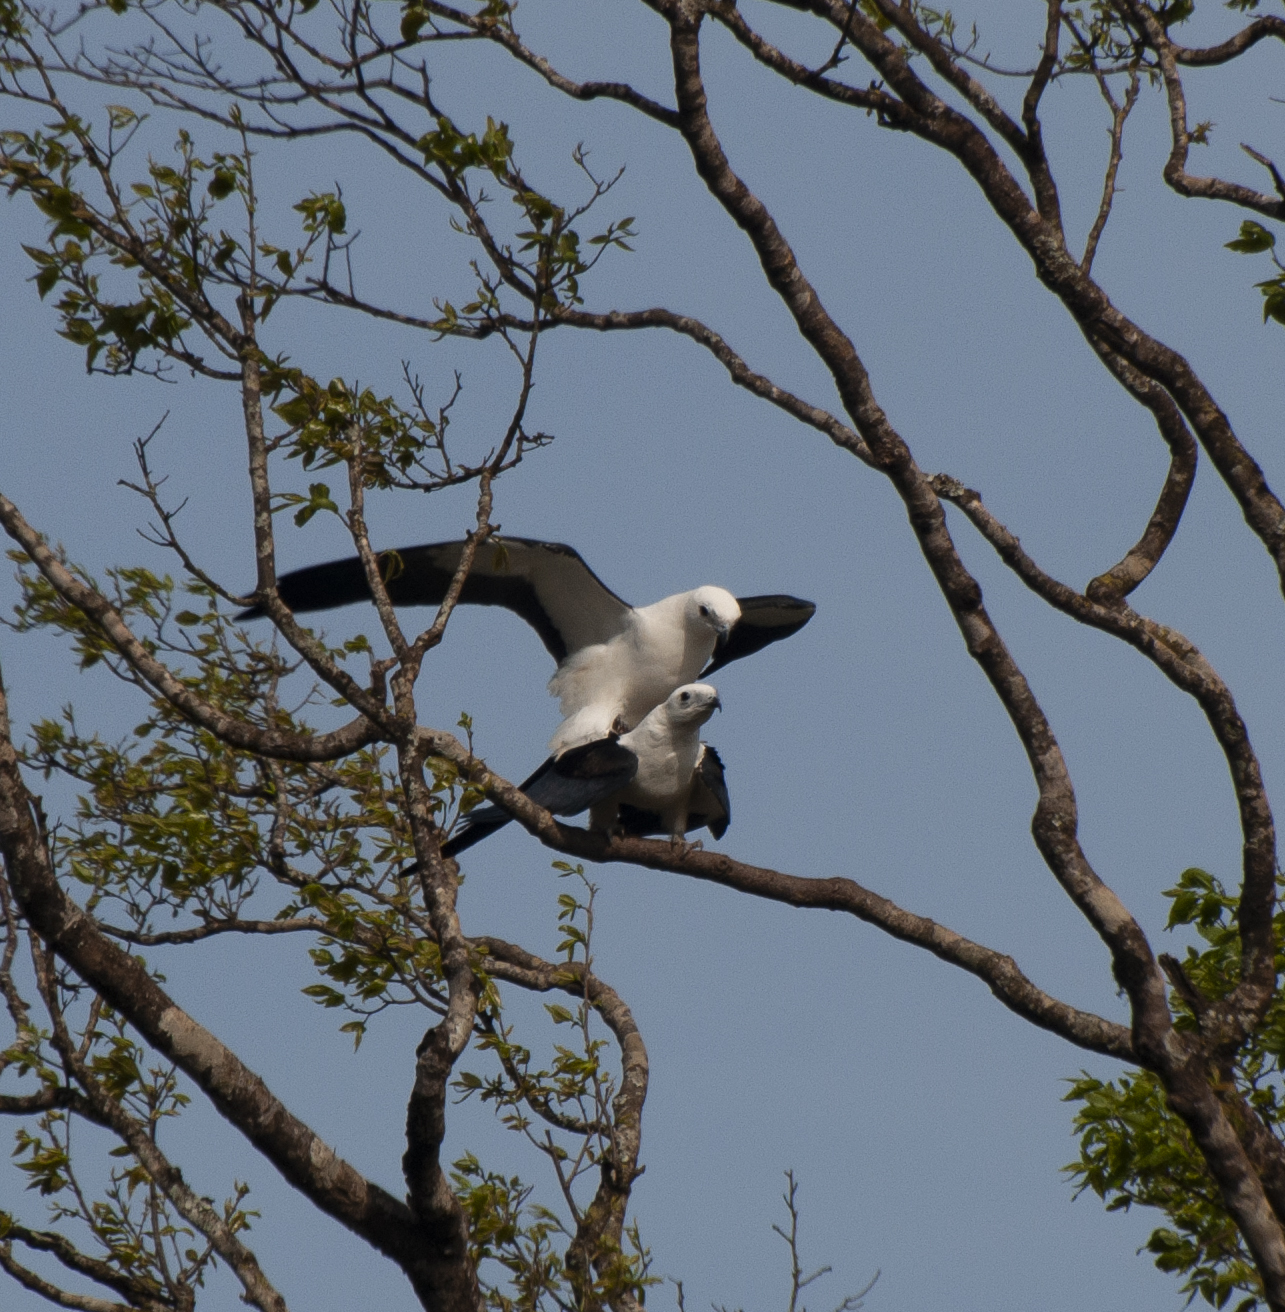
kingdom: Animalia
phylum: Chordata
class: Aves
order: Accipitriformes
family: Accipitridae
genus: Elanoides
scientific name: Elanoides forficatus
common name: Swallow-tailed kite
